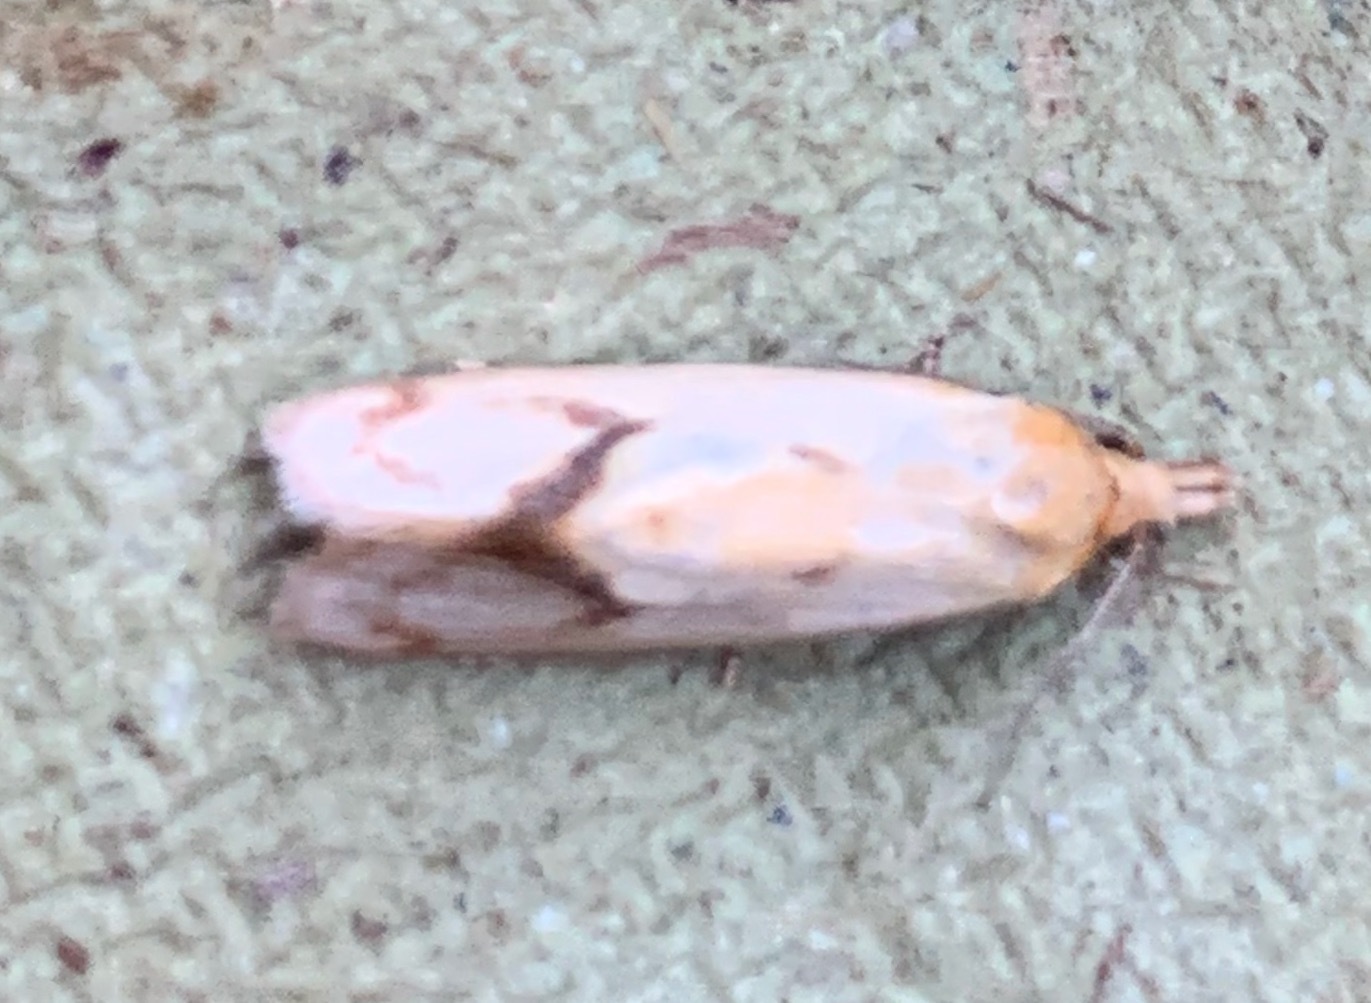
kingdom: Animalia
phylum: Arthropoda
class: Insecta
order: Lepidoptera
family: Tortricidae
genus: Agapeta
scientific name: Agapeta hamana
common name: Common yellow conch
